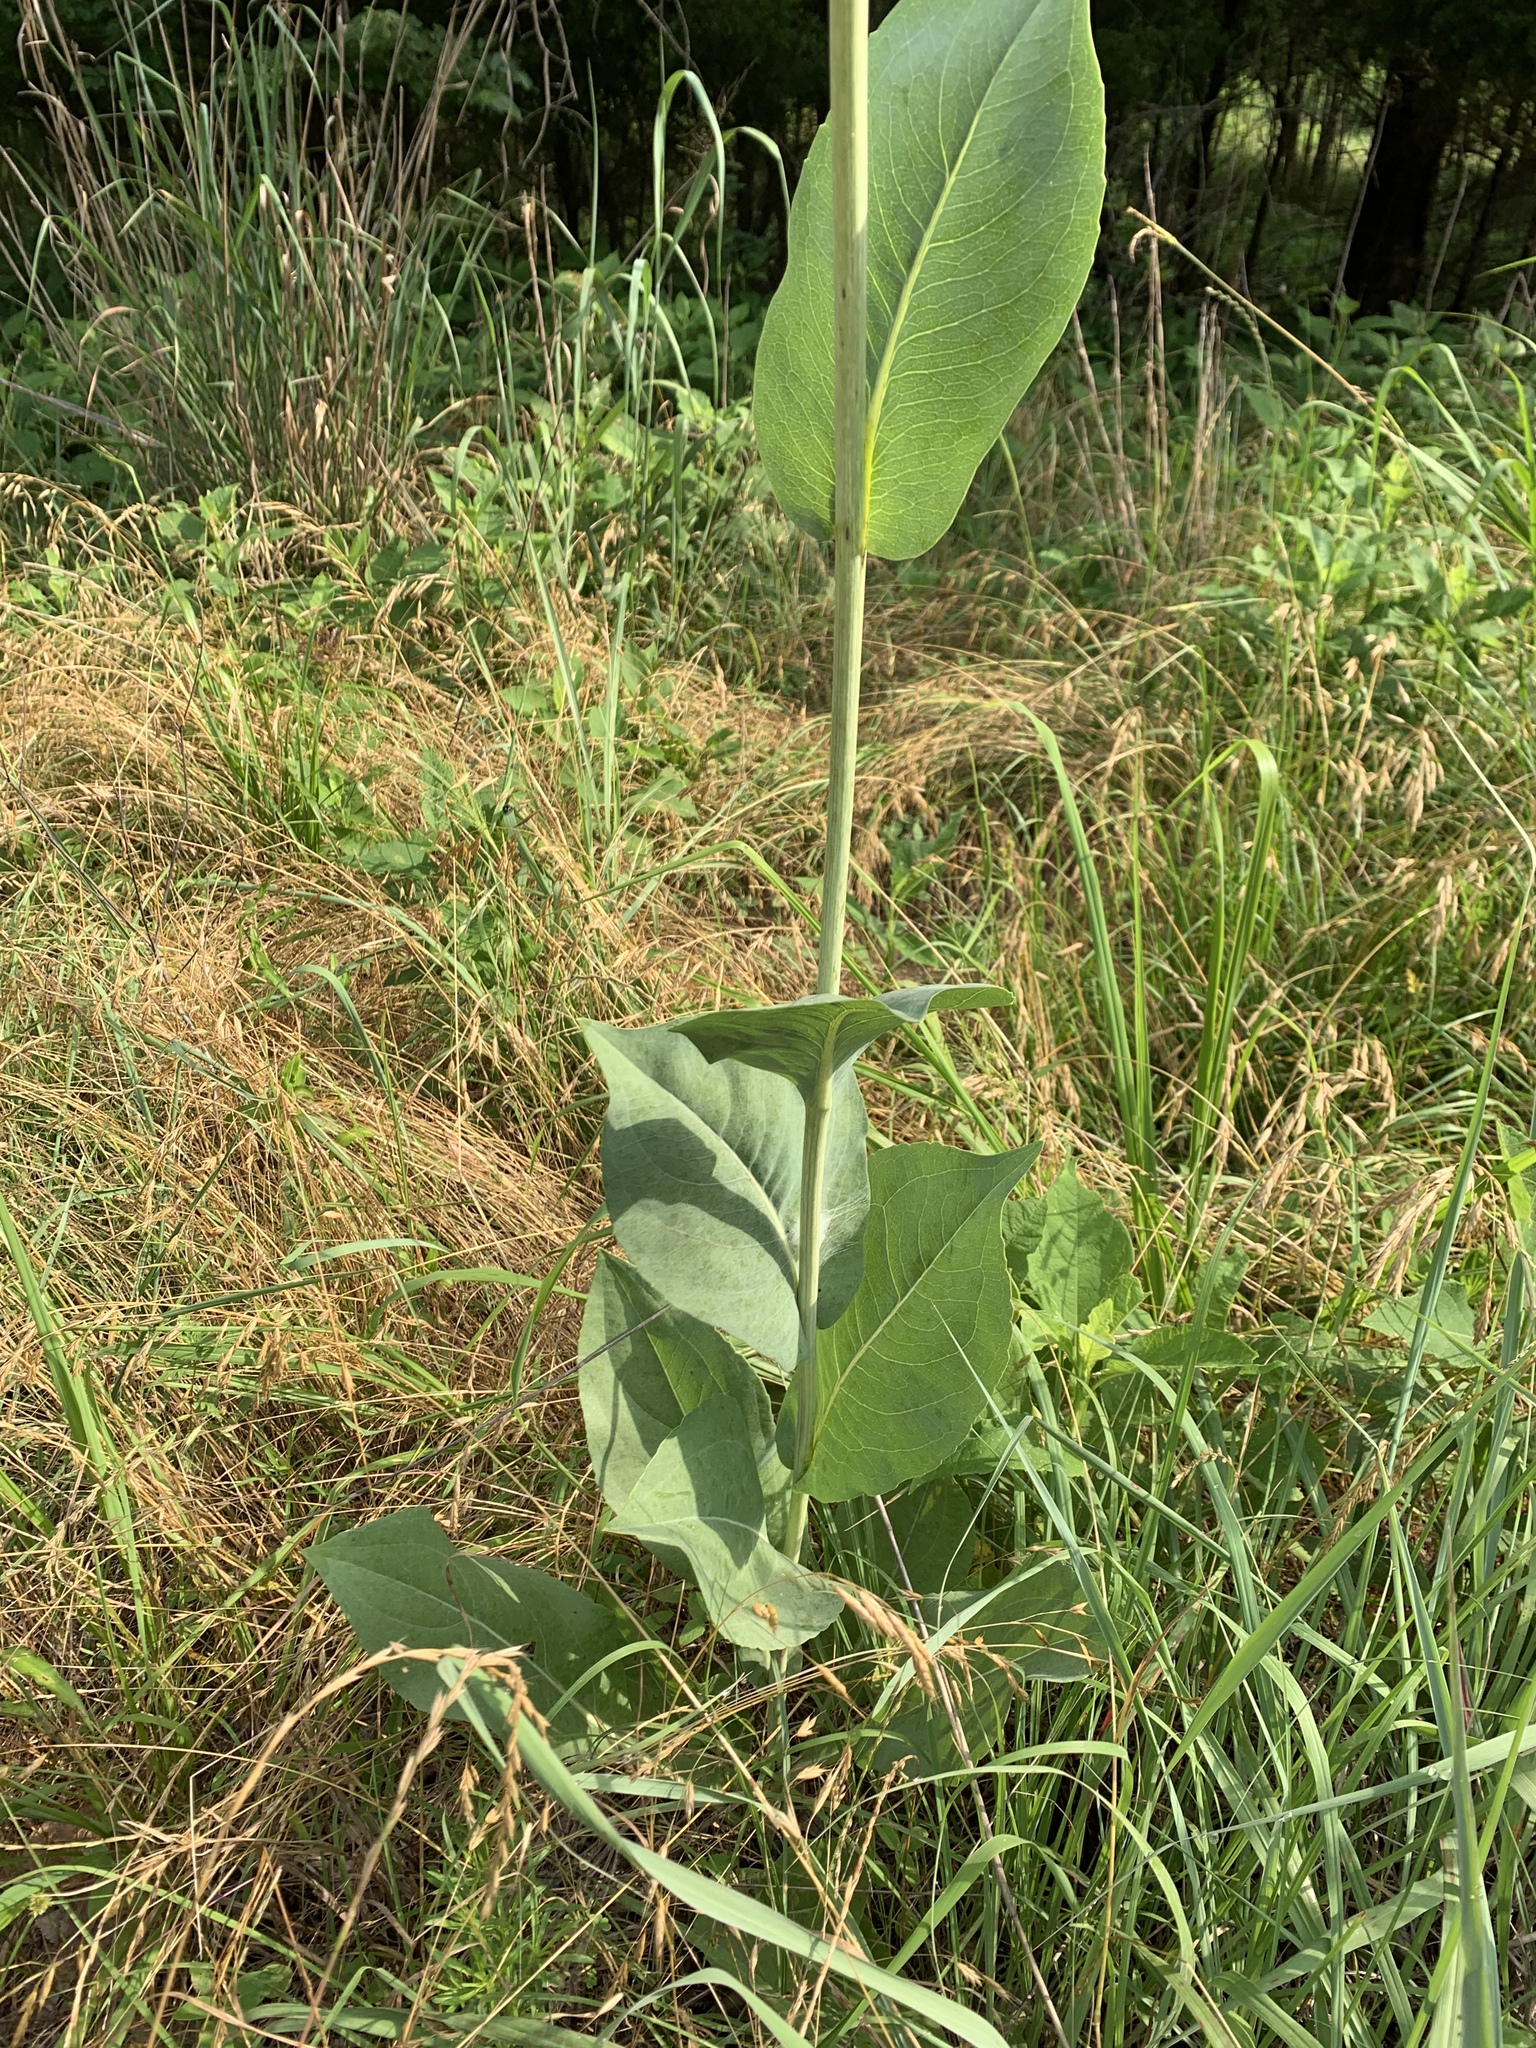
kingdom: Plantae
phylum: Tracheophyta
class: Magnoliopsida
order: Asterales
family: Asteraceae
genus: Rudbeckia
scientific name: Rudbeckia maxima
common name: Cabbage coneflower
